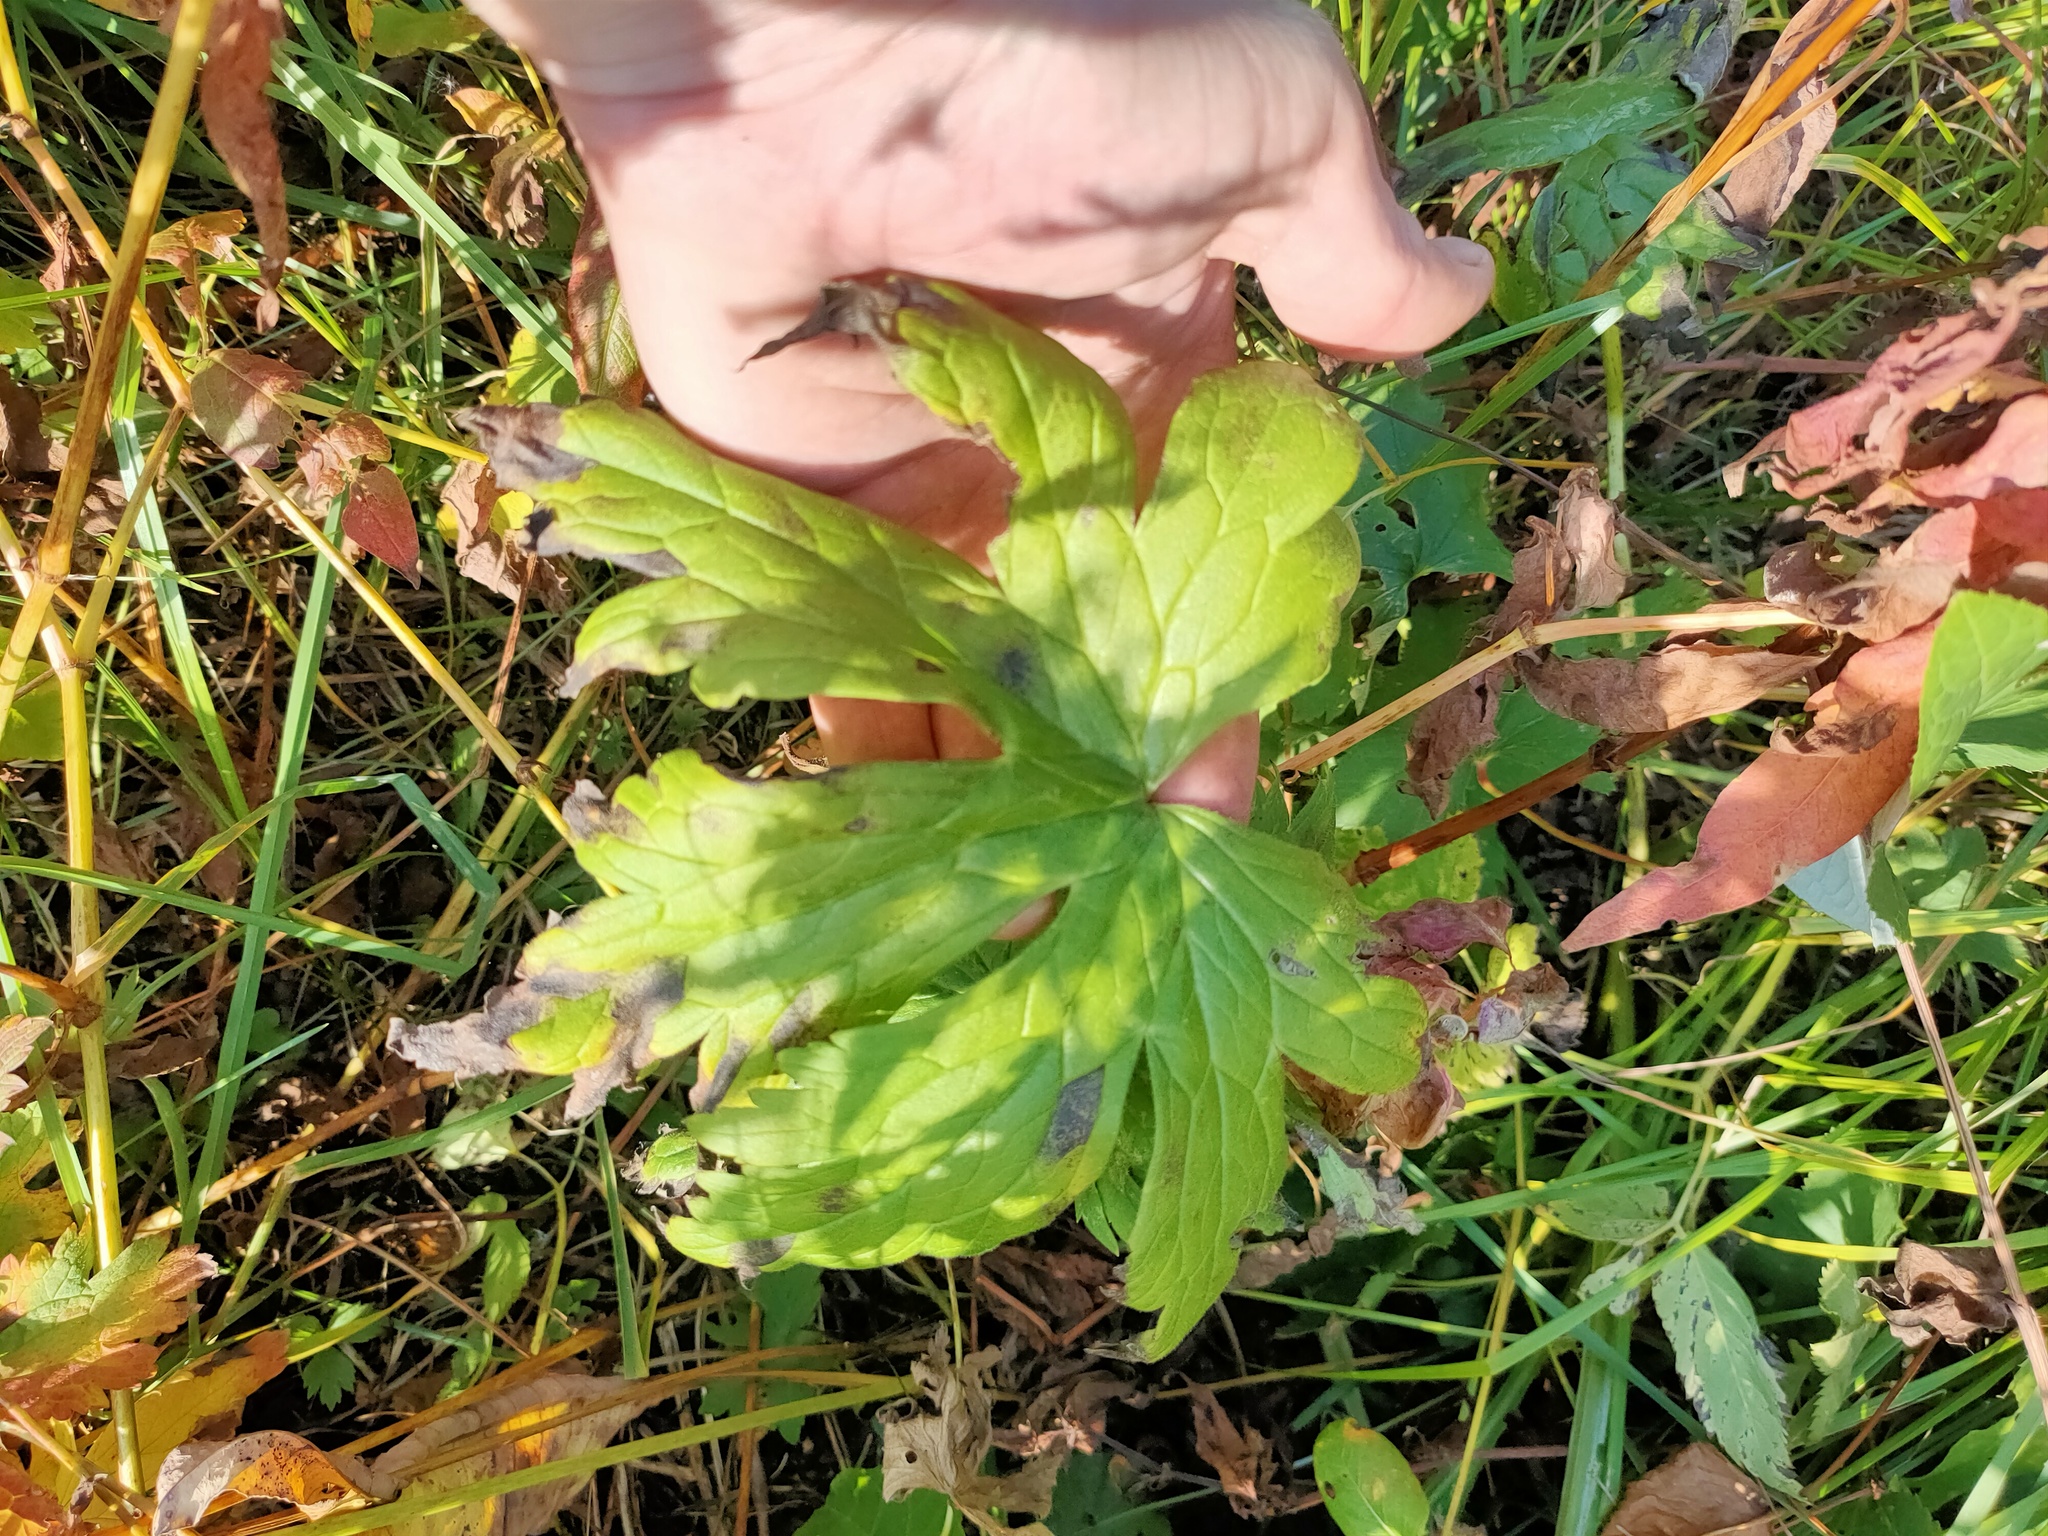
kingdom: Plantae
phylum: Tracheophyta
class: Magnoliopsida
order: Ranunculales
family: Ranunculaceae
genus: Aconitum
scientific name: Aconitum septentrionale
